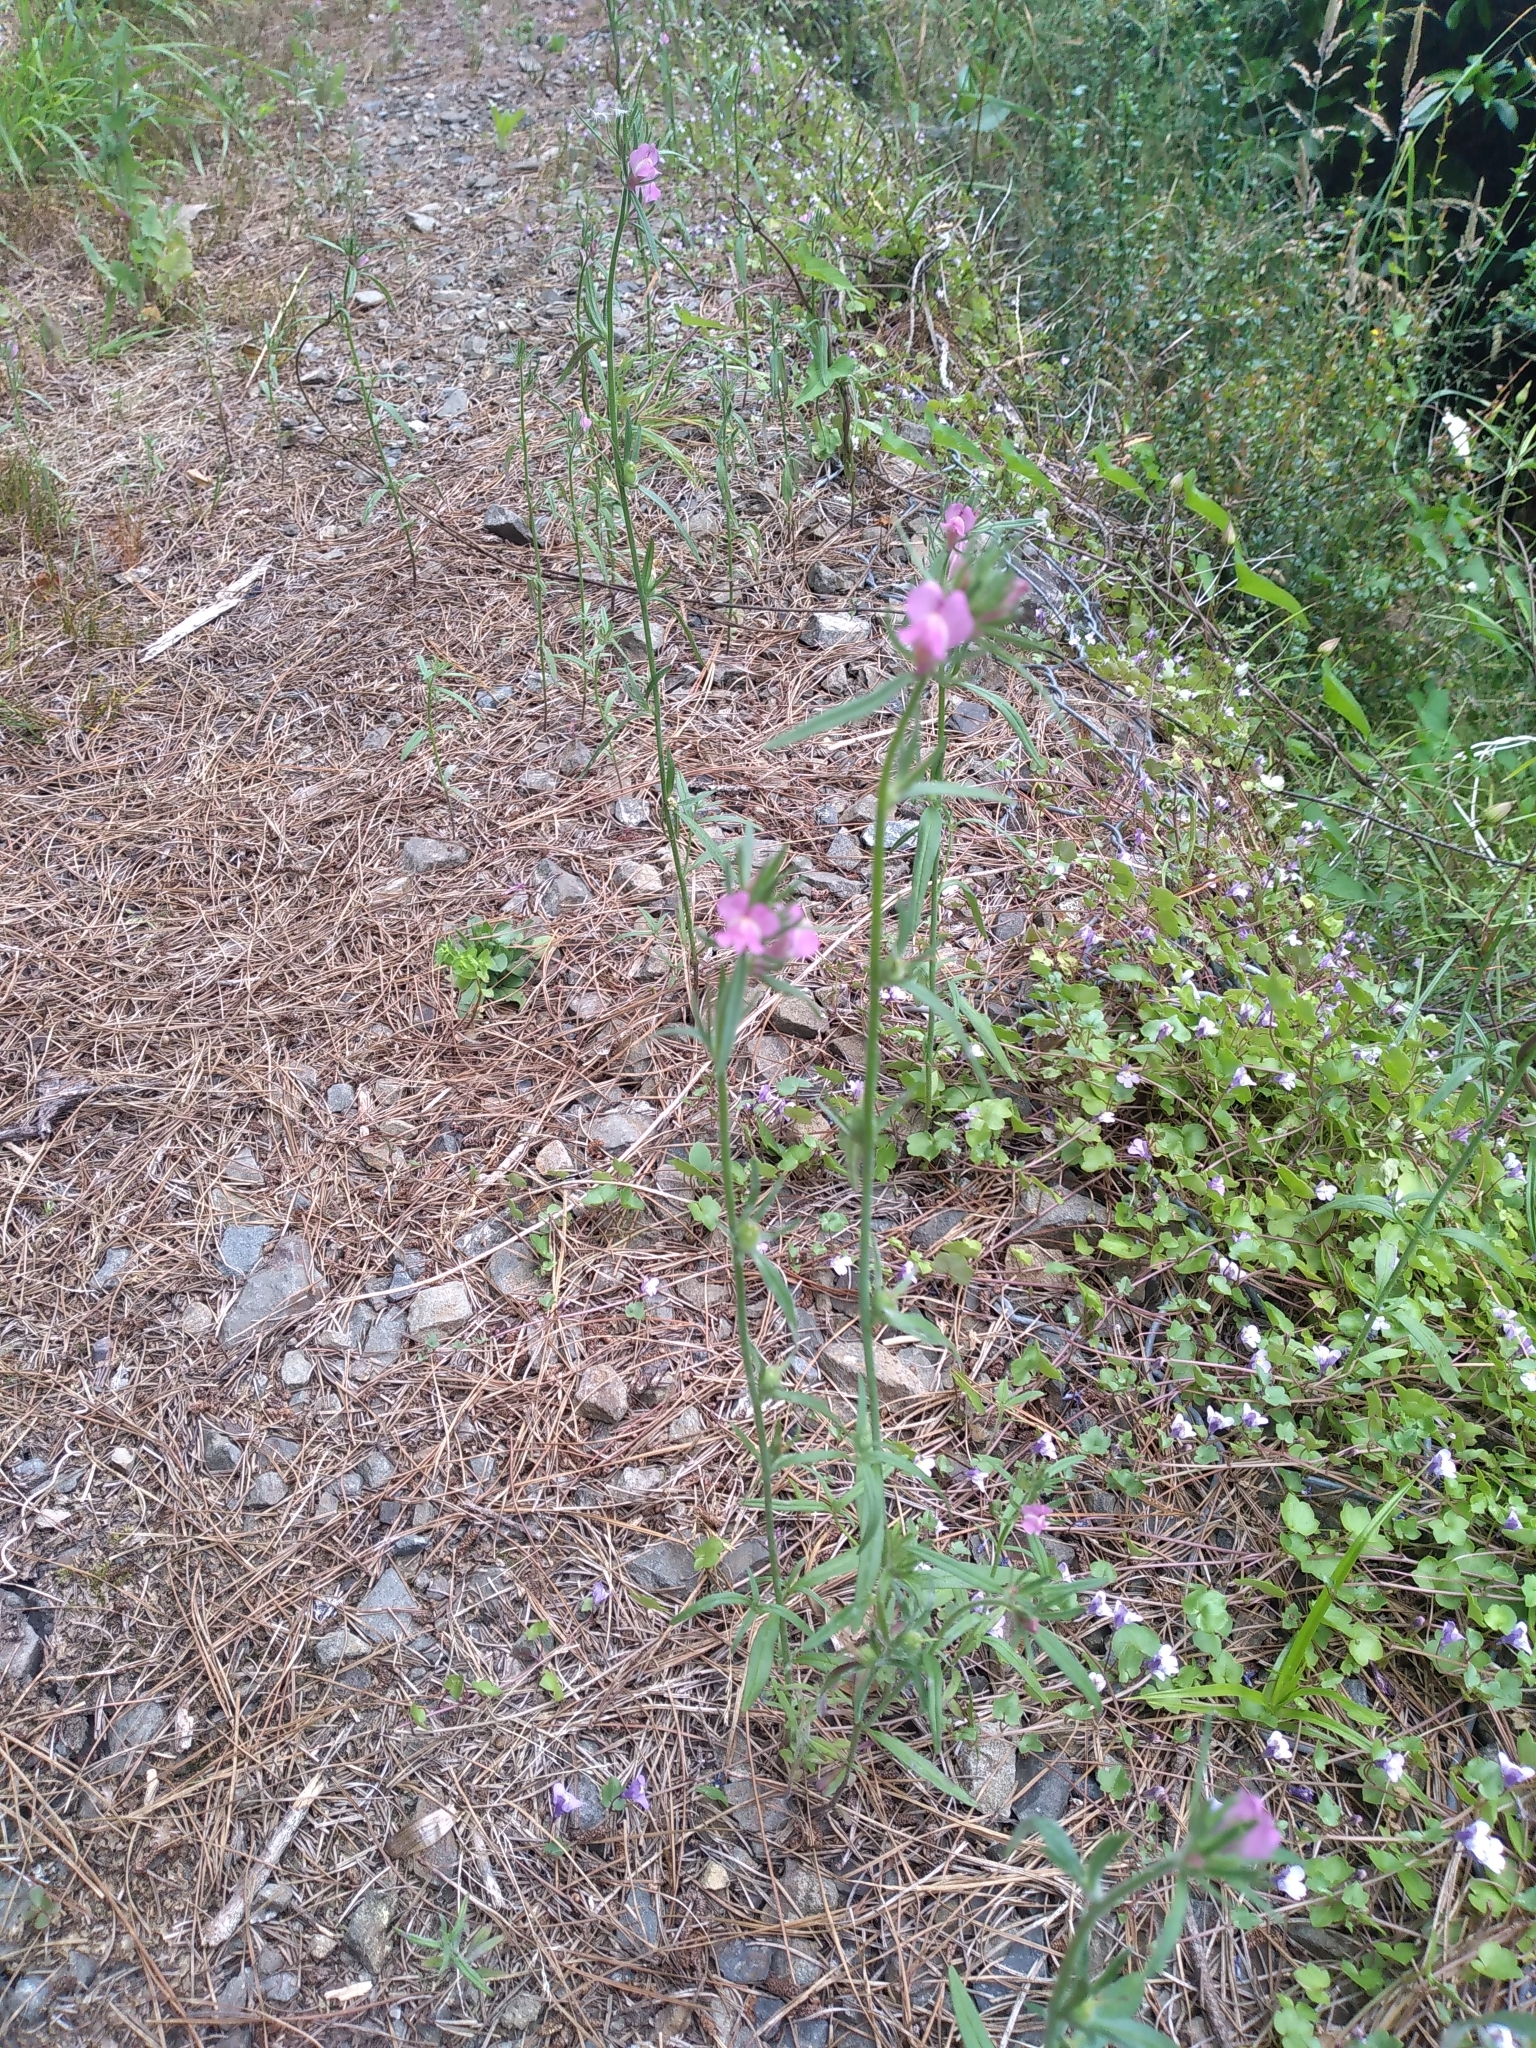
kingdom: Plantae
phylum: Tracheophyta
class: Magnoliopsida
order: Lamiales
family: Plantaginaceae
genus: Misopates
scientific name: Misopates orontium
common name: Weasel's-snout
